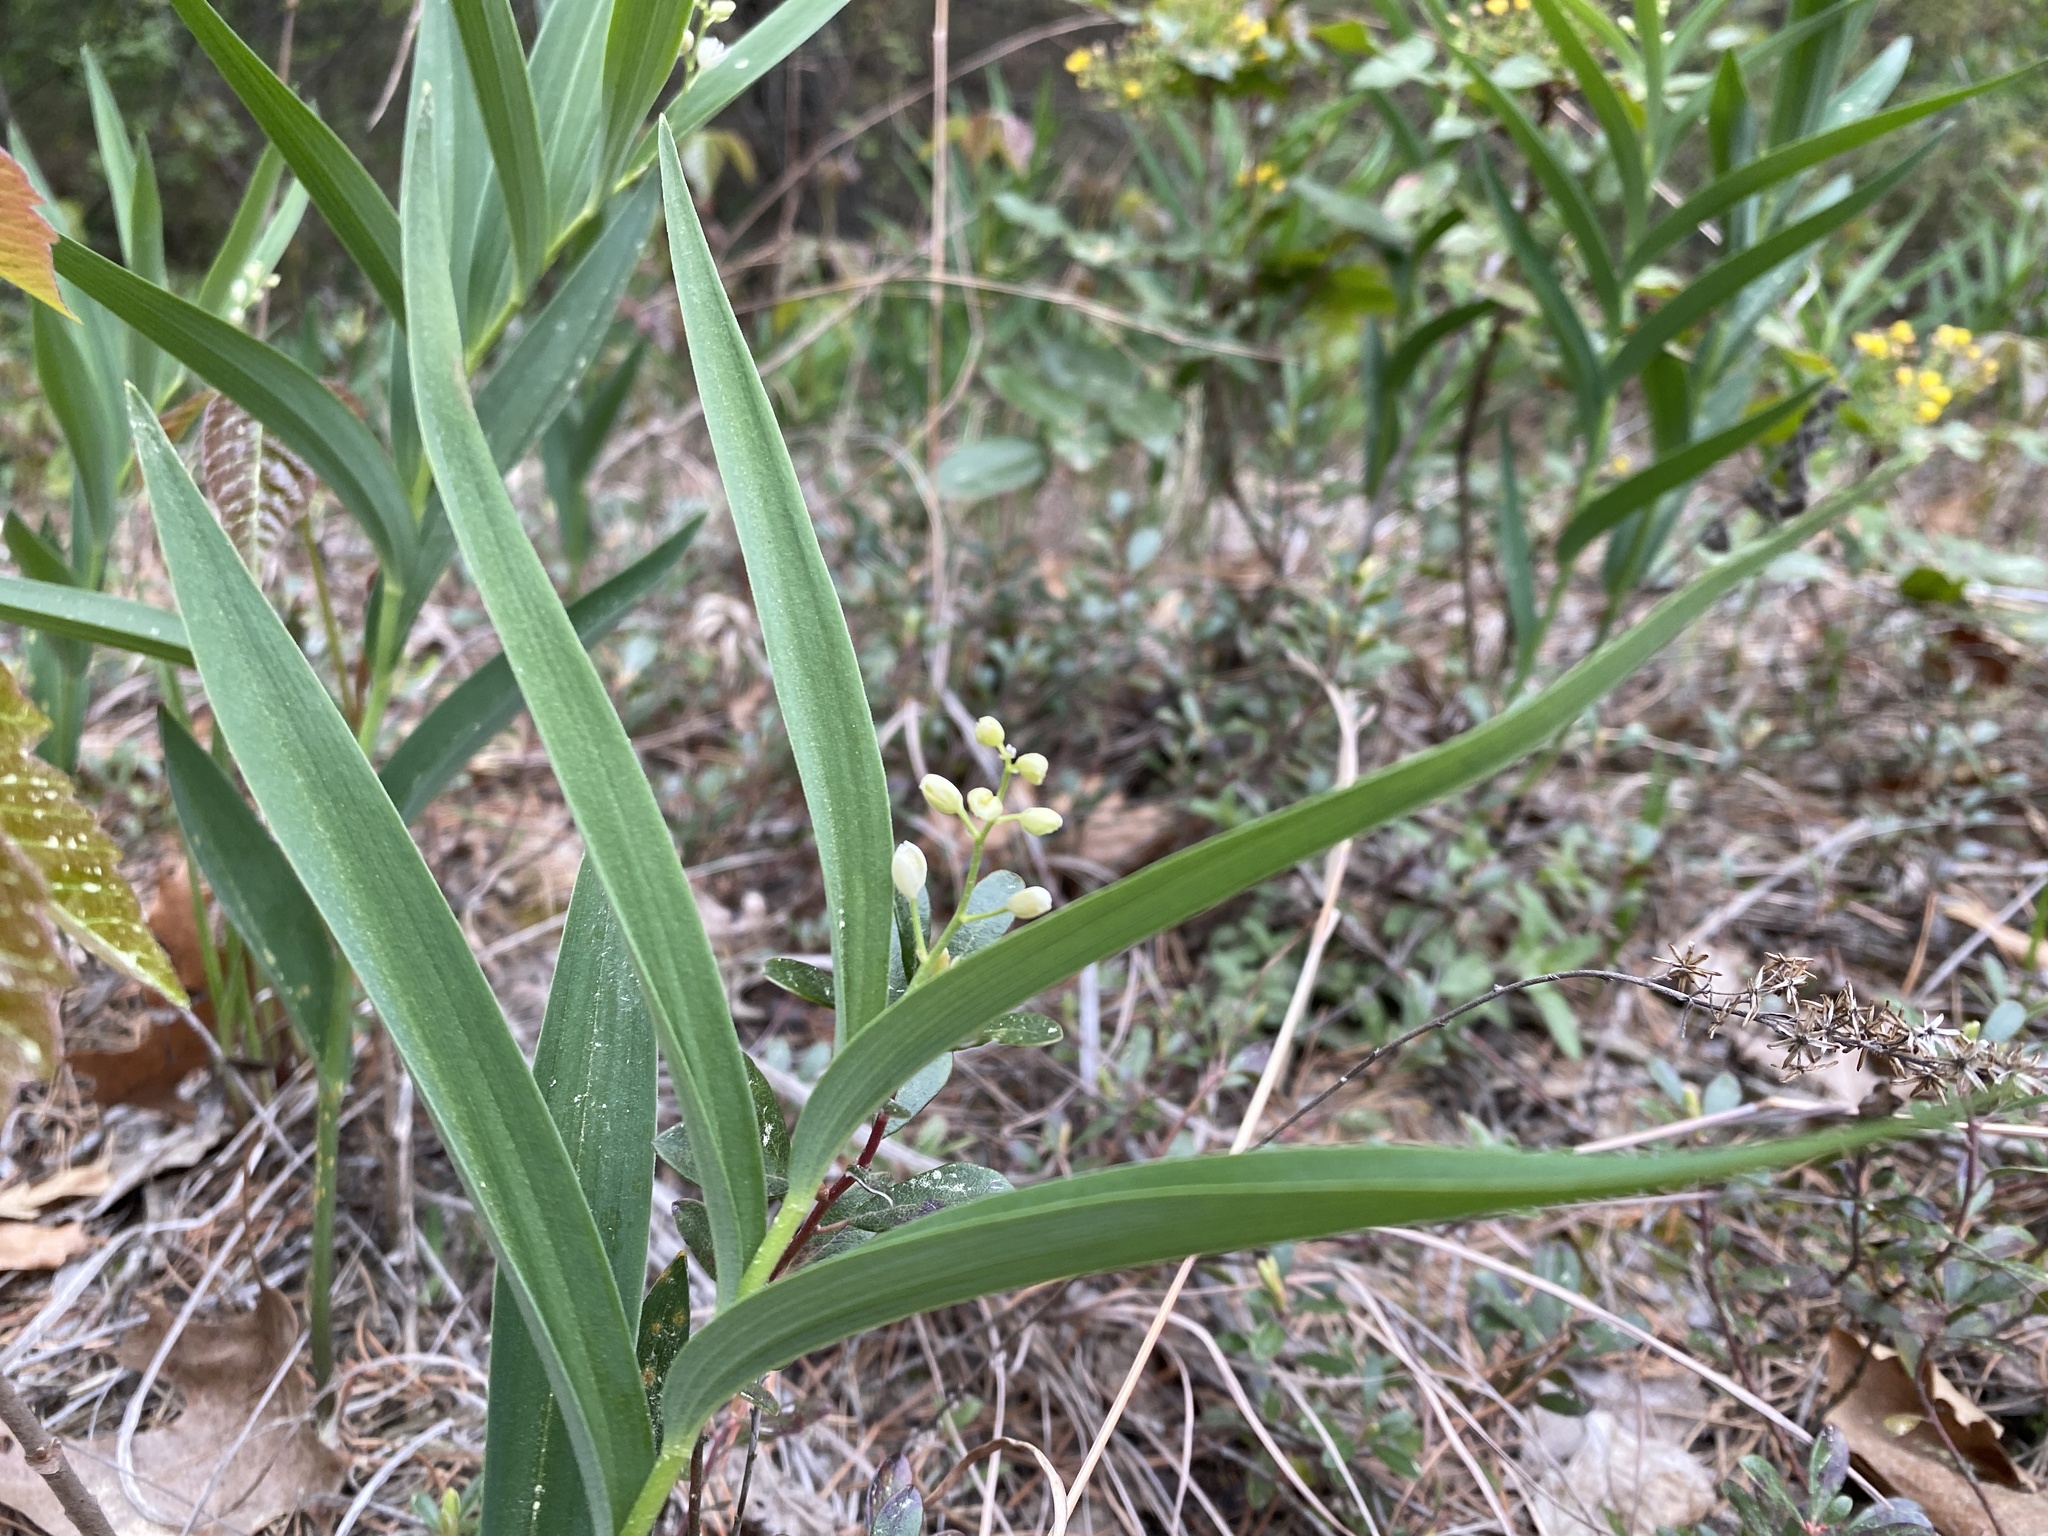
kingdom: Plantae
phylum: Tracheophyta
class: Liliopsida
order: Asparagales
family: Asparagaceae
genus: Maianthemum
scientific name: Maianthemum stellatum
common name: Little false solomon's seal
